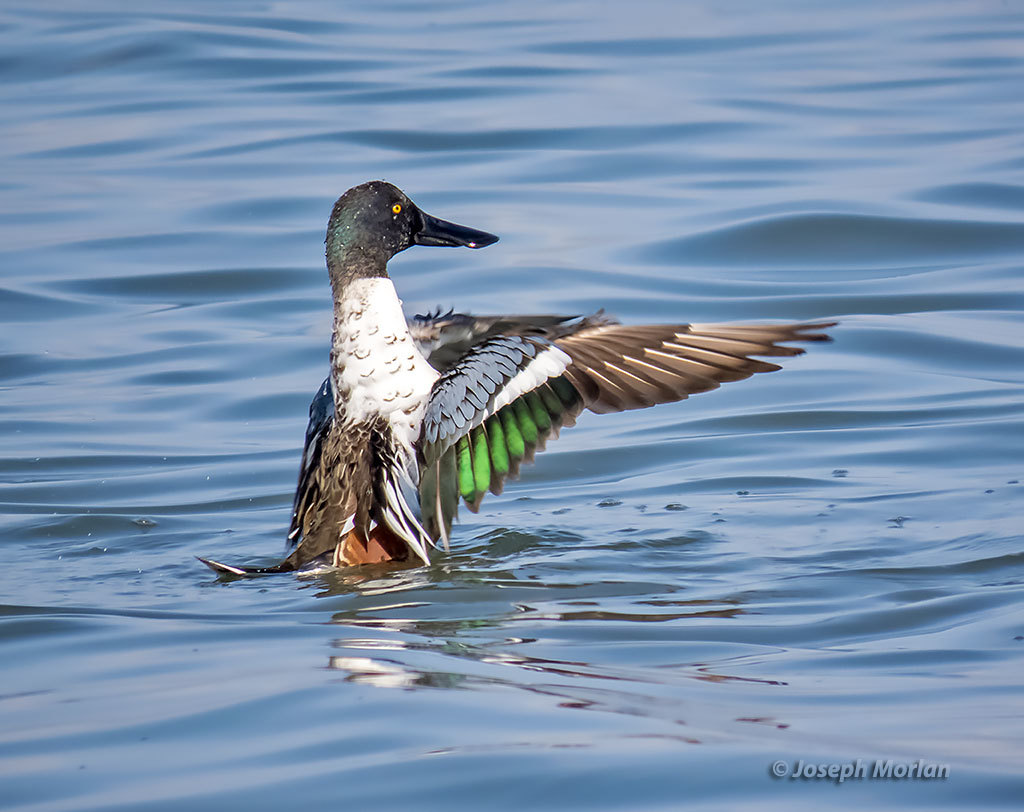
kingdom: Animalia
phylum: Chordata
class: Aves
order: Anseriformes
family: Anatidae
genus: Spatula
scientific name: Spatula clypeata
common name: Northern shoveler
